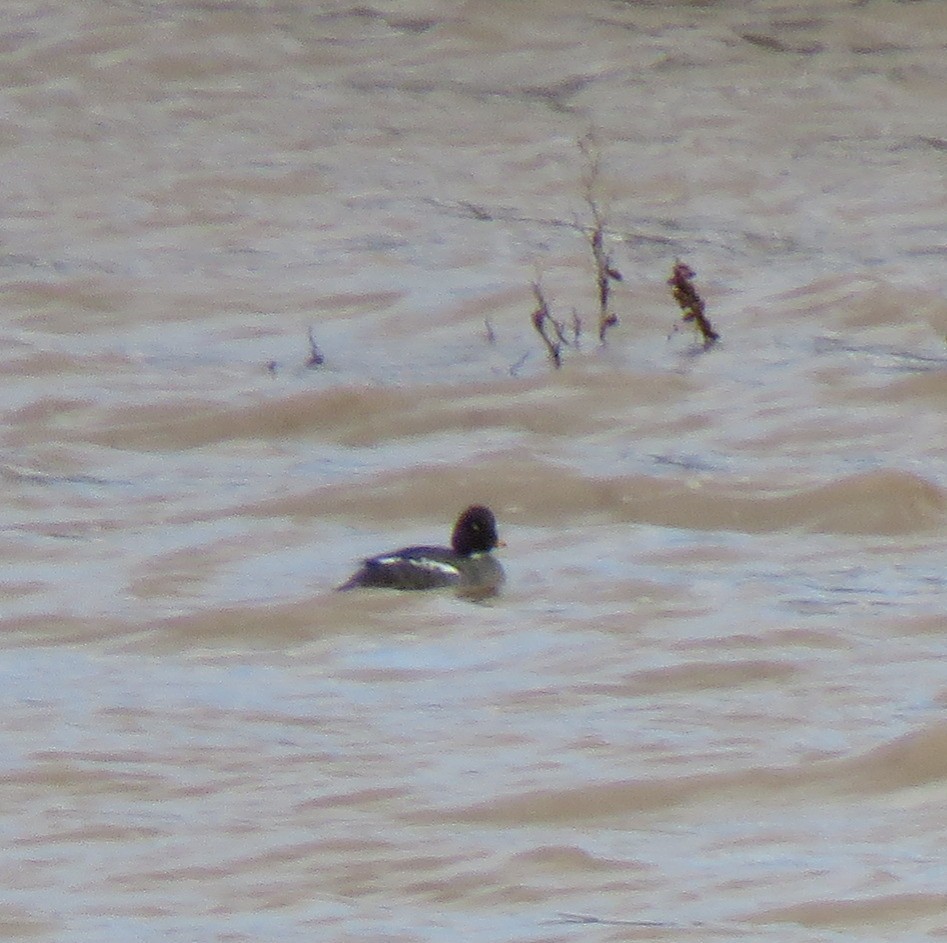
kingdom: Animalia
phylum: Chordata
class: Aves
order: Anseriformes
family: Anatidae
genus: Bucephala
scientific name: Bucephala clangula
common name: Common goldeneye
